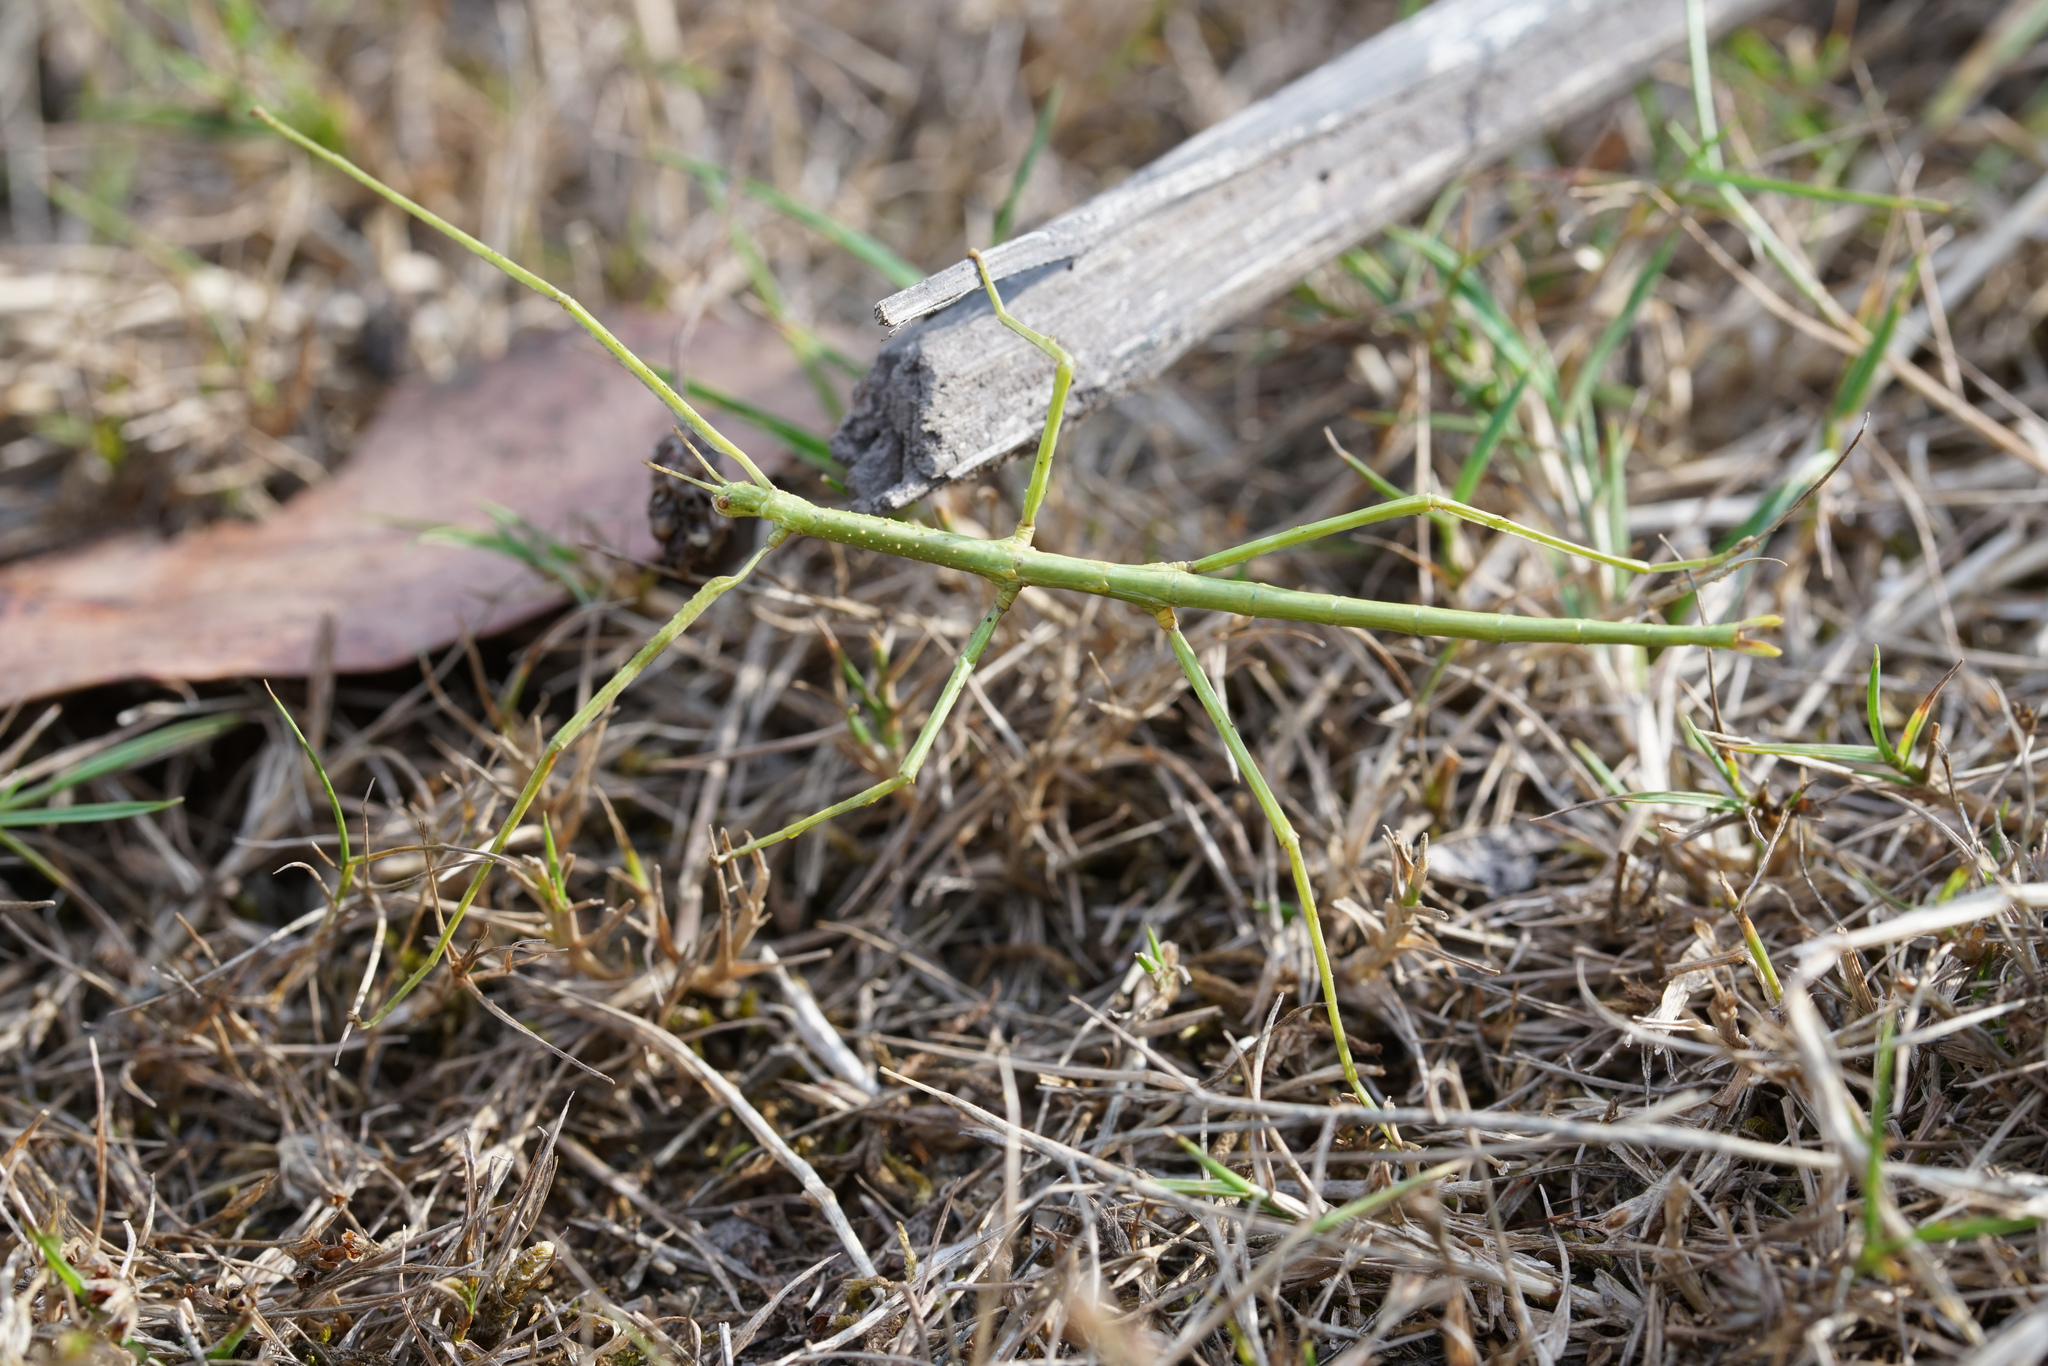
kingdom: Animalia
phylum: Arthropoda
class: Insecta
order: Phasmida
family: Phasmatidae
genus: Ctenomorpha
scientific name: Ctenomorpha marginipennis
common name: Margined-winged stick-insect
